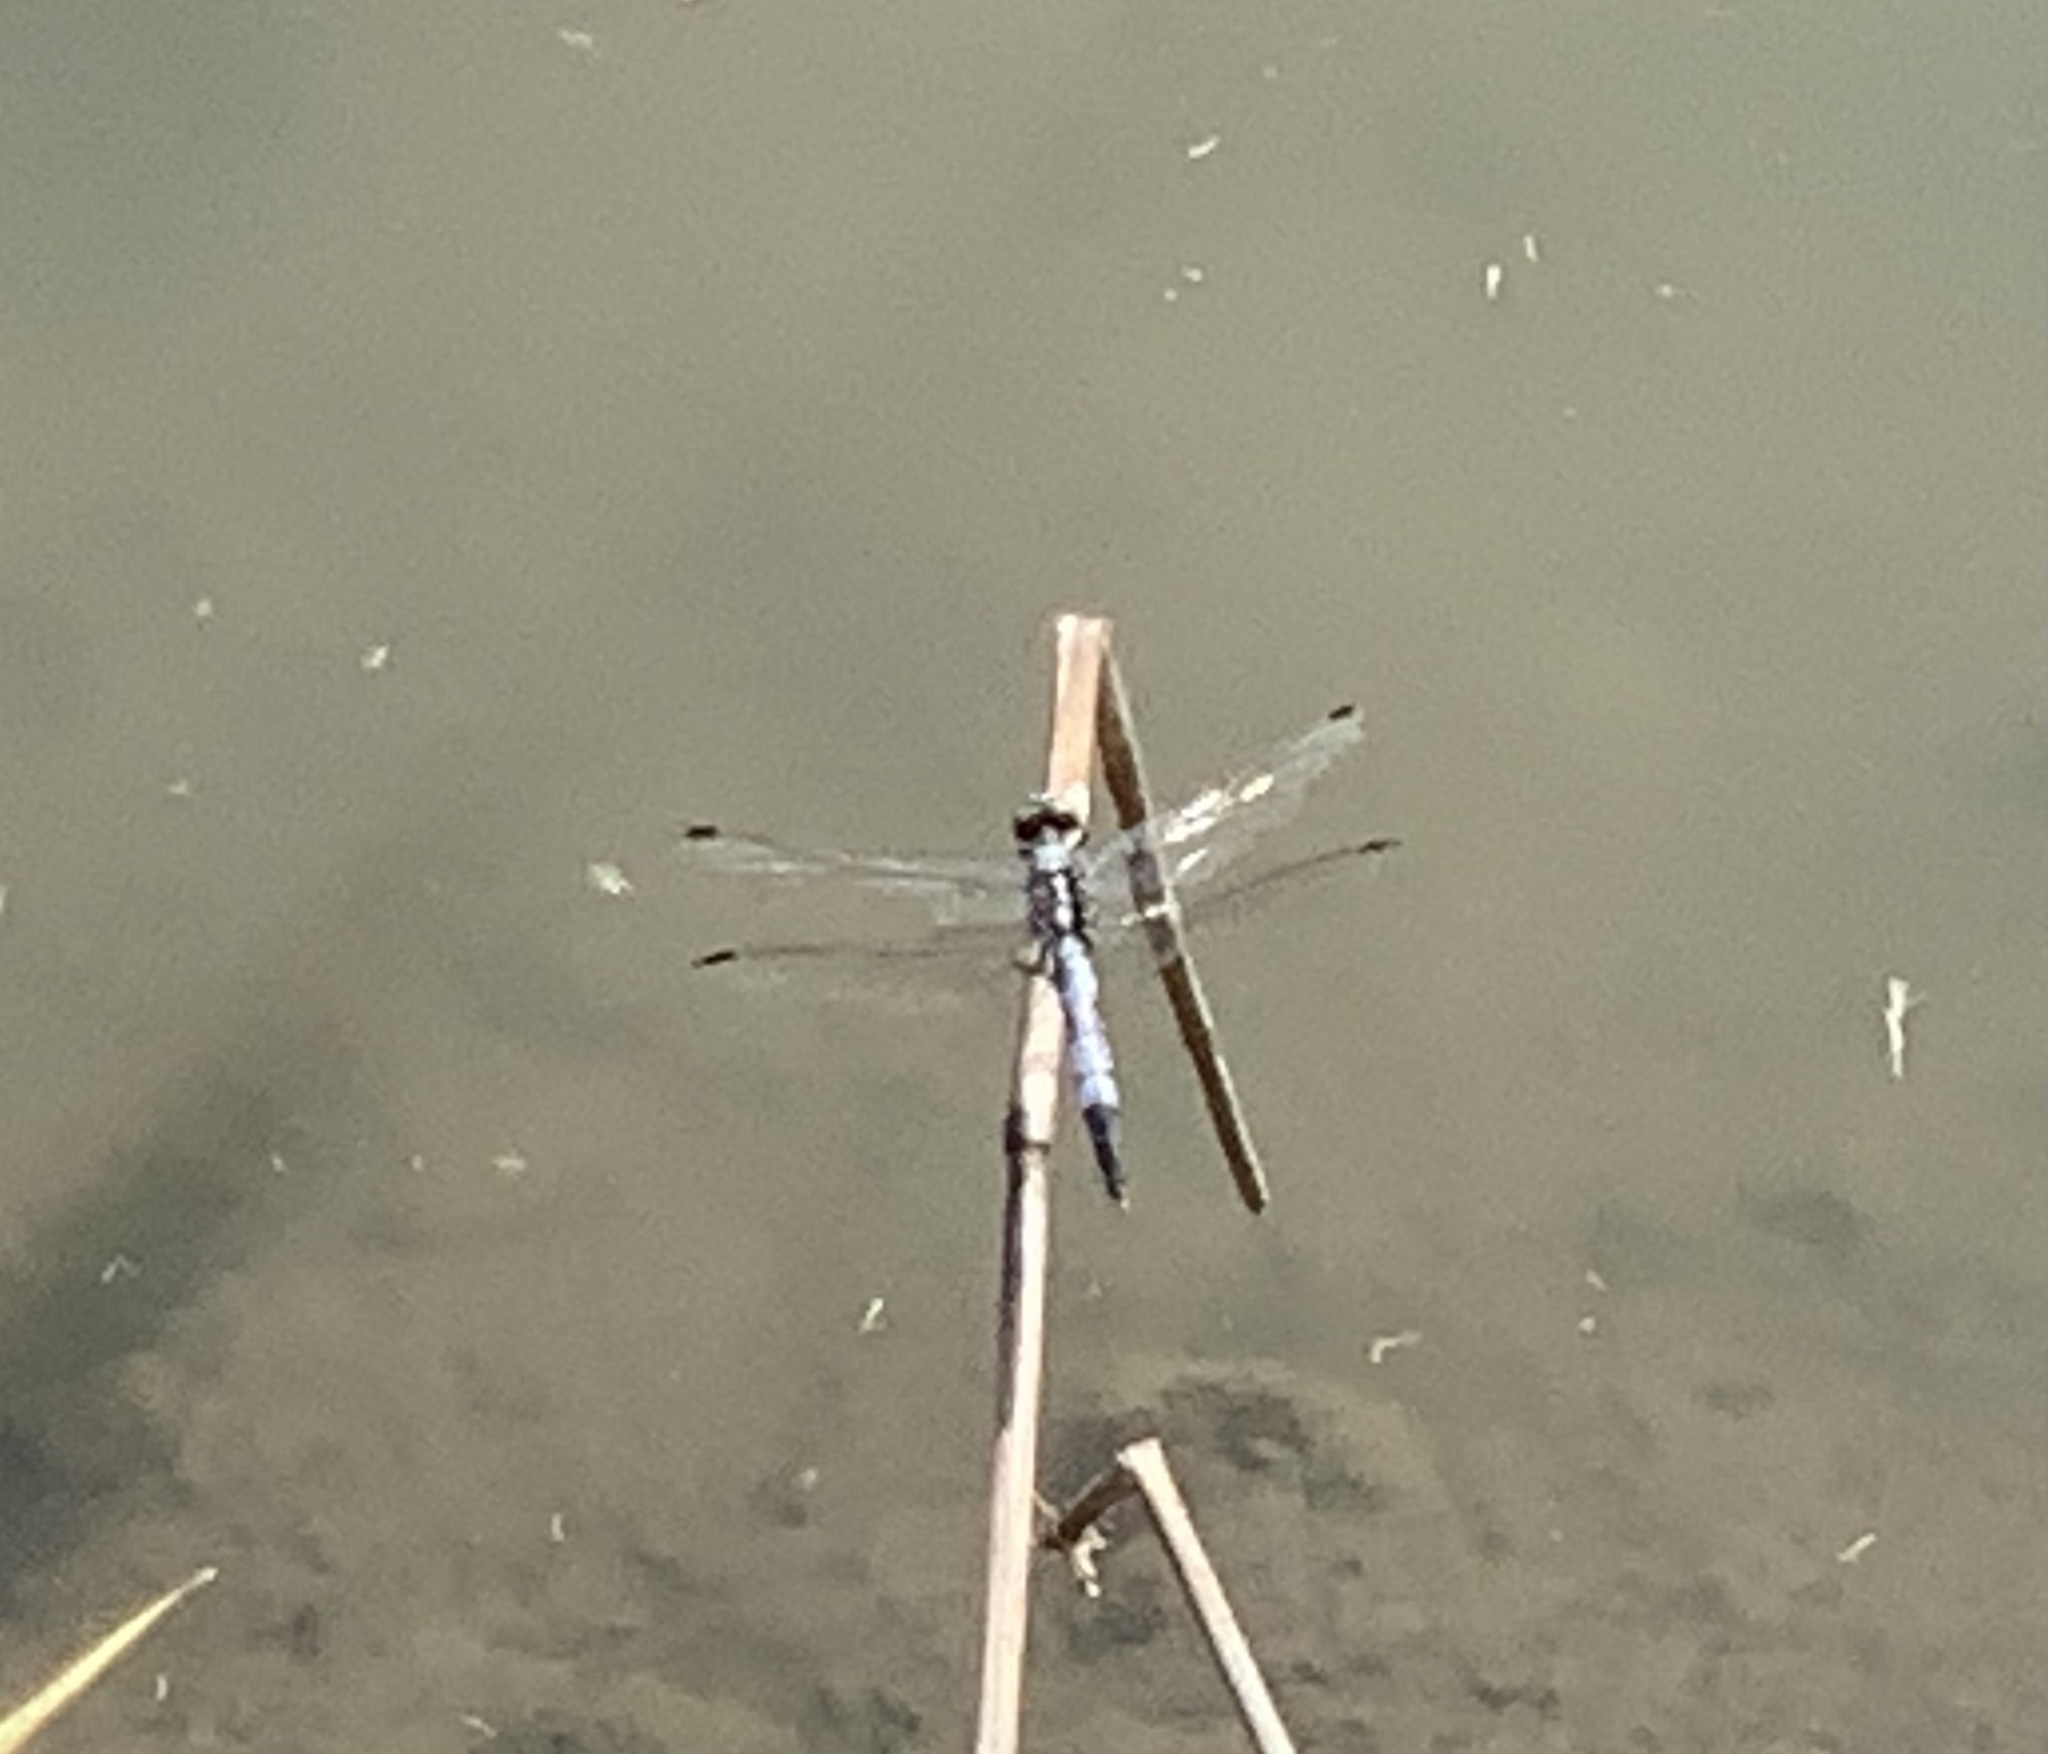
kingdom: Animalia
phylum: Arthropoda
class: Insecta
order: Odonata
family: Libellulidae
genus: Orthetrum
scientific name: Orthetrum albistylum
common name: White-tailed skimmer
